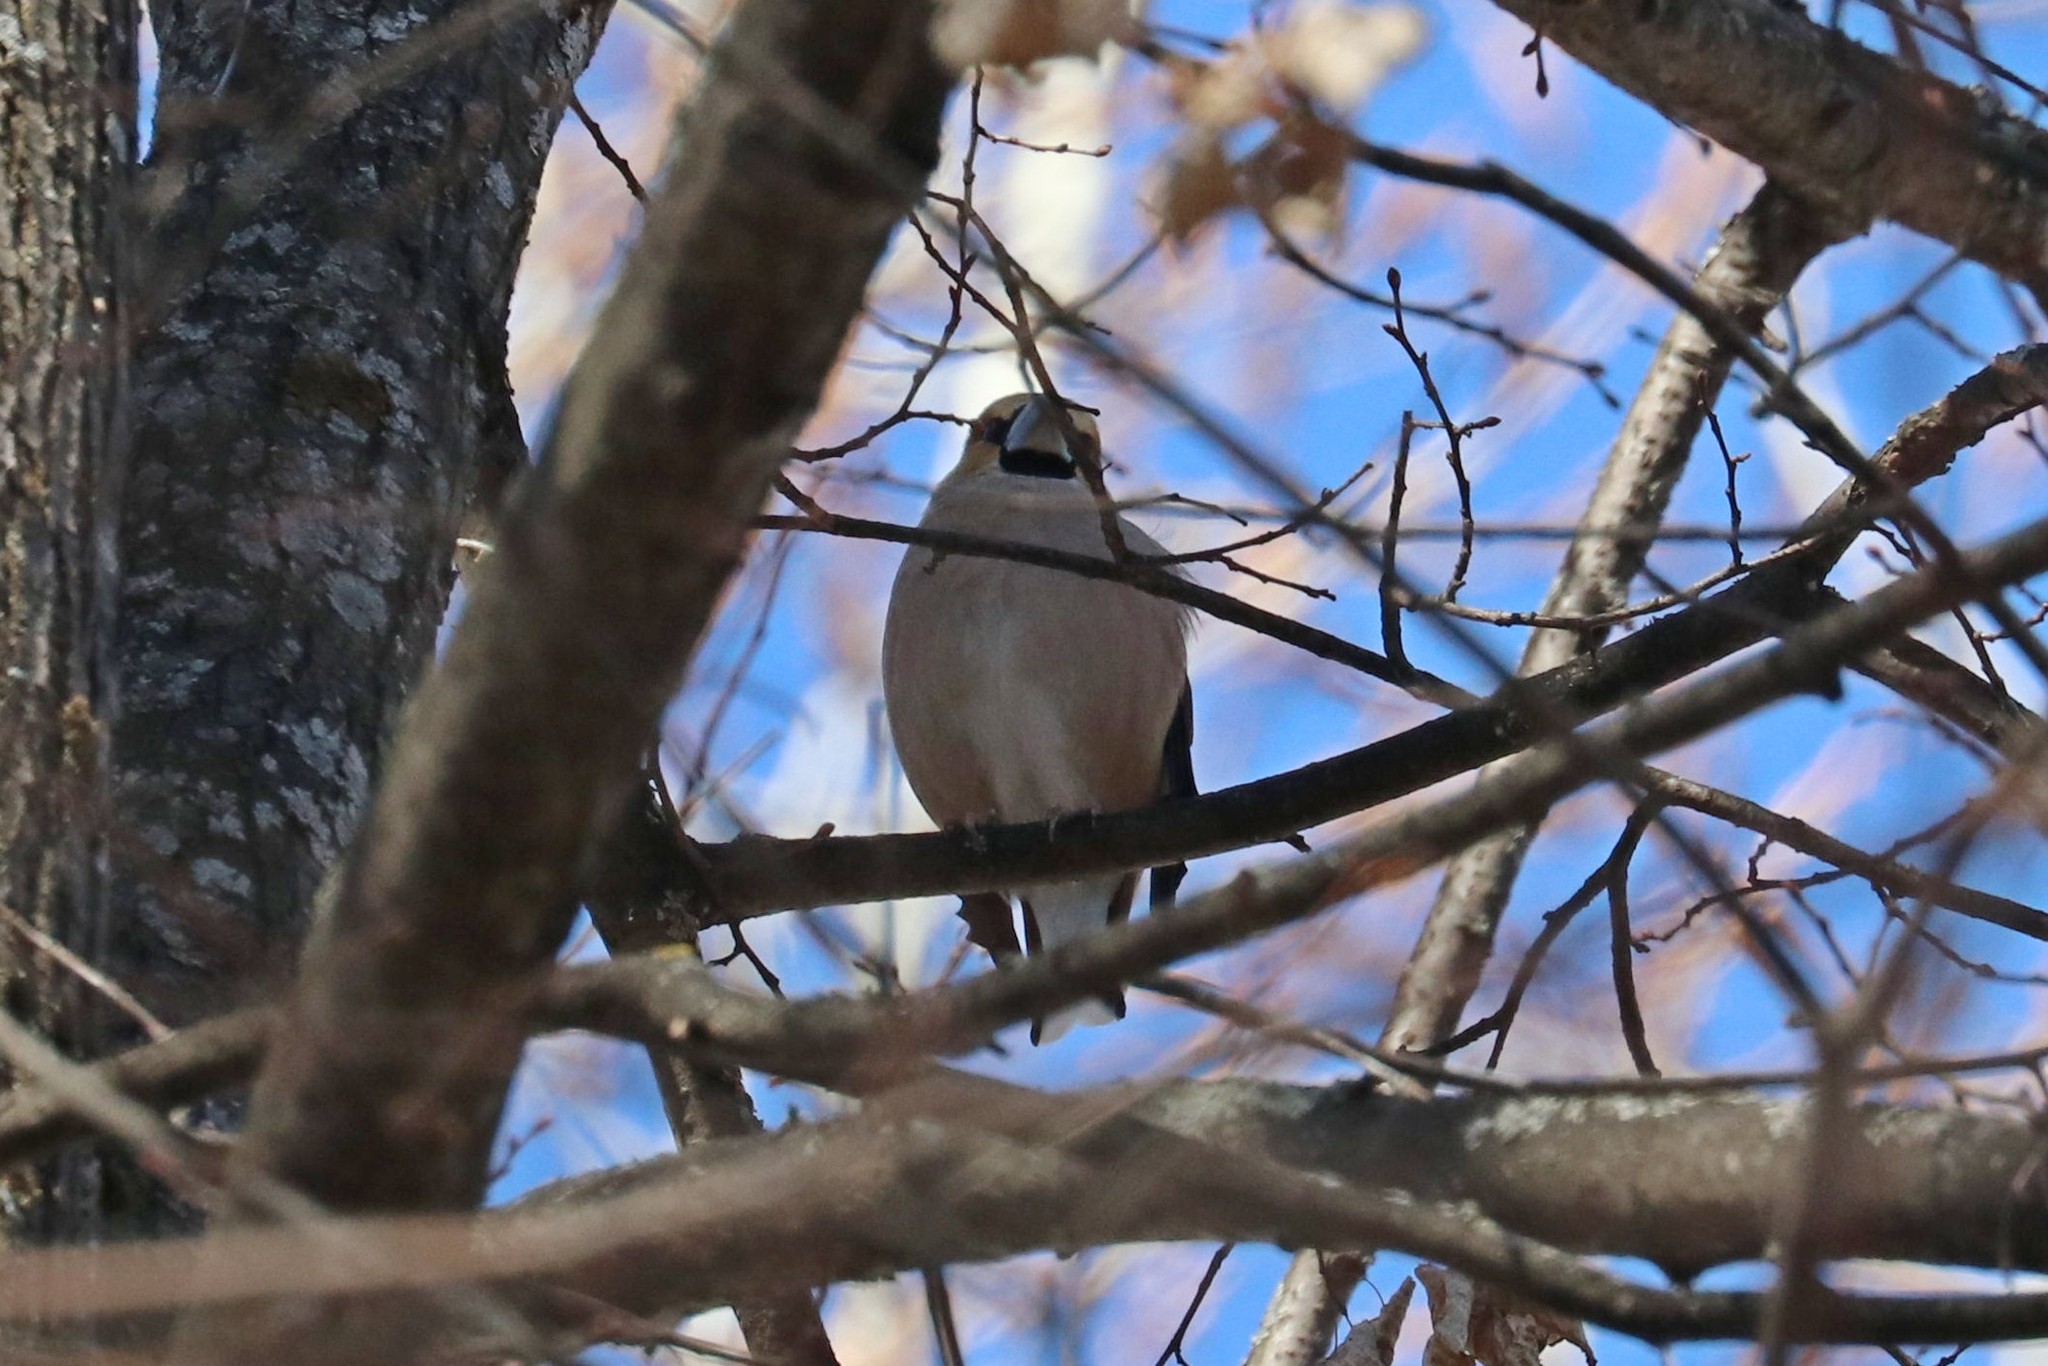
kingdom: Animalia
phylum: Chordata
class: Aves
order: Passeriformes
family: Fringillidae
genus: Coccothraustes
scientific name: Coccothraustes coccothraustes
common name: Hawfinch
